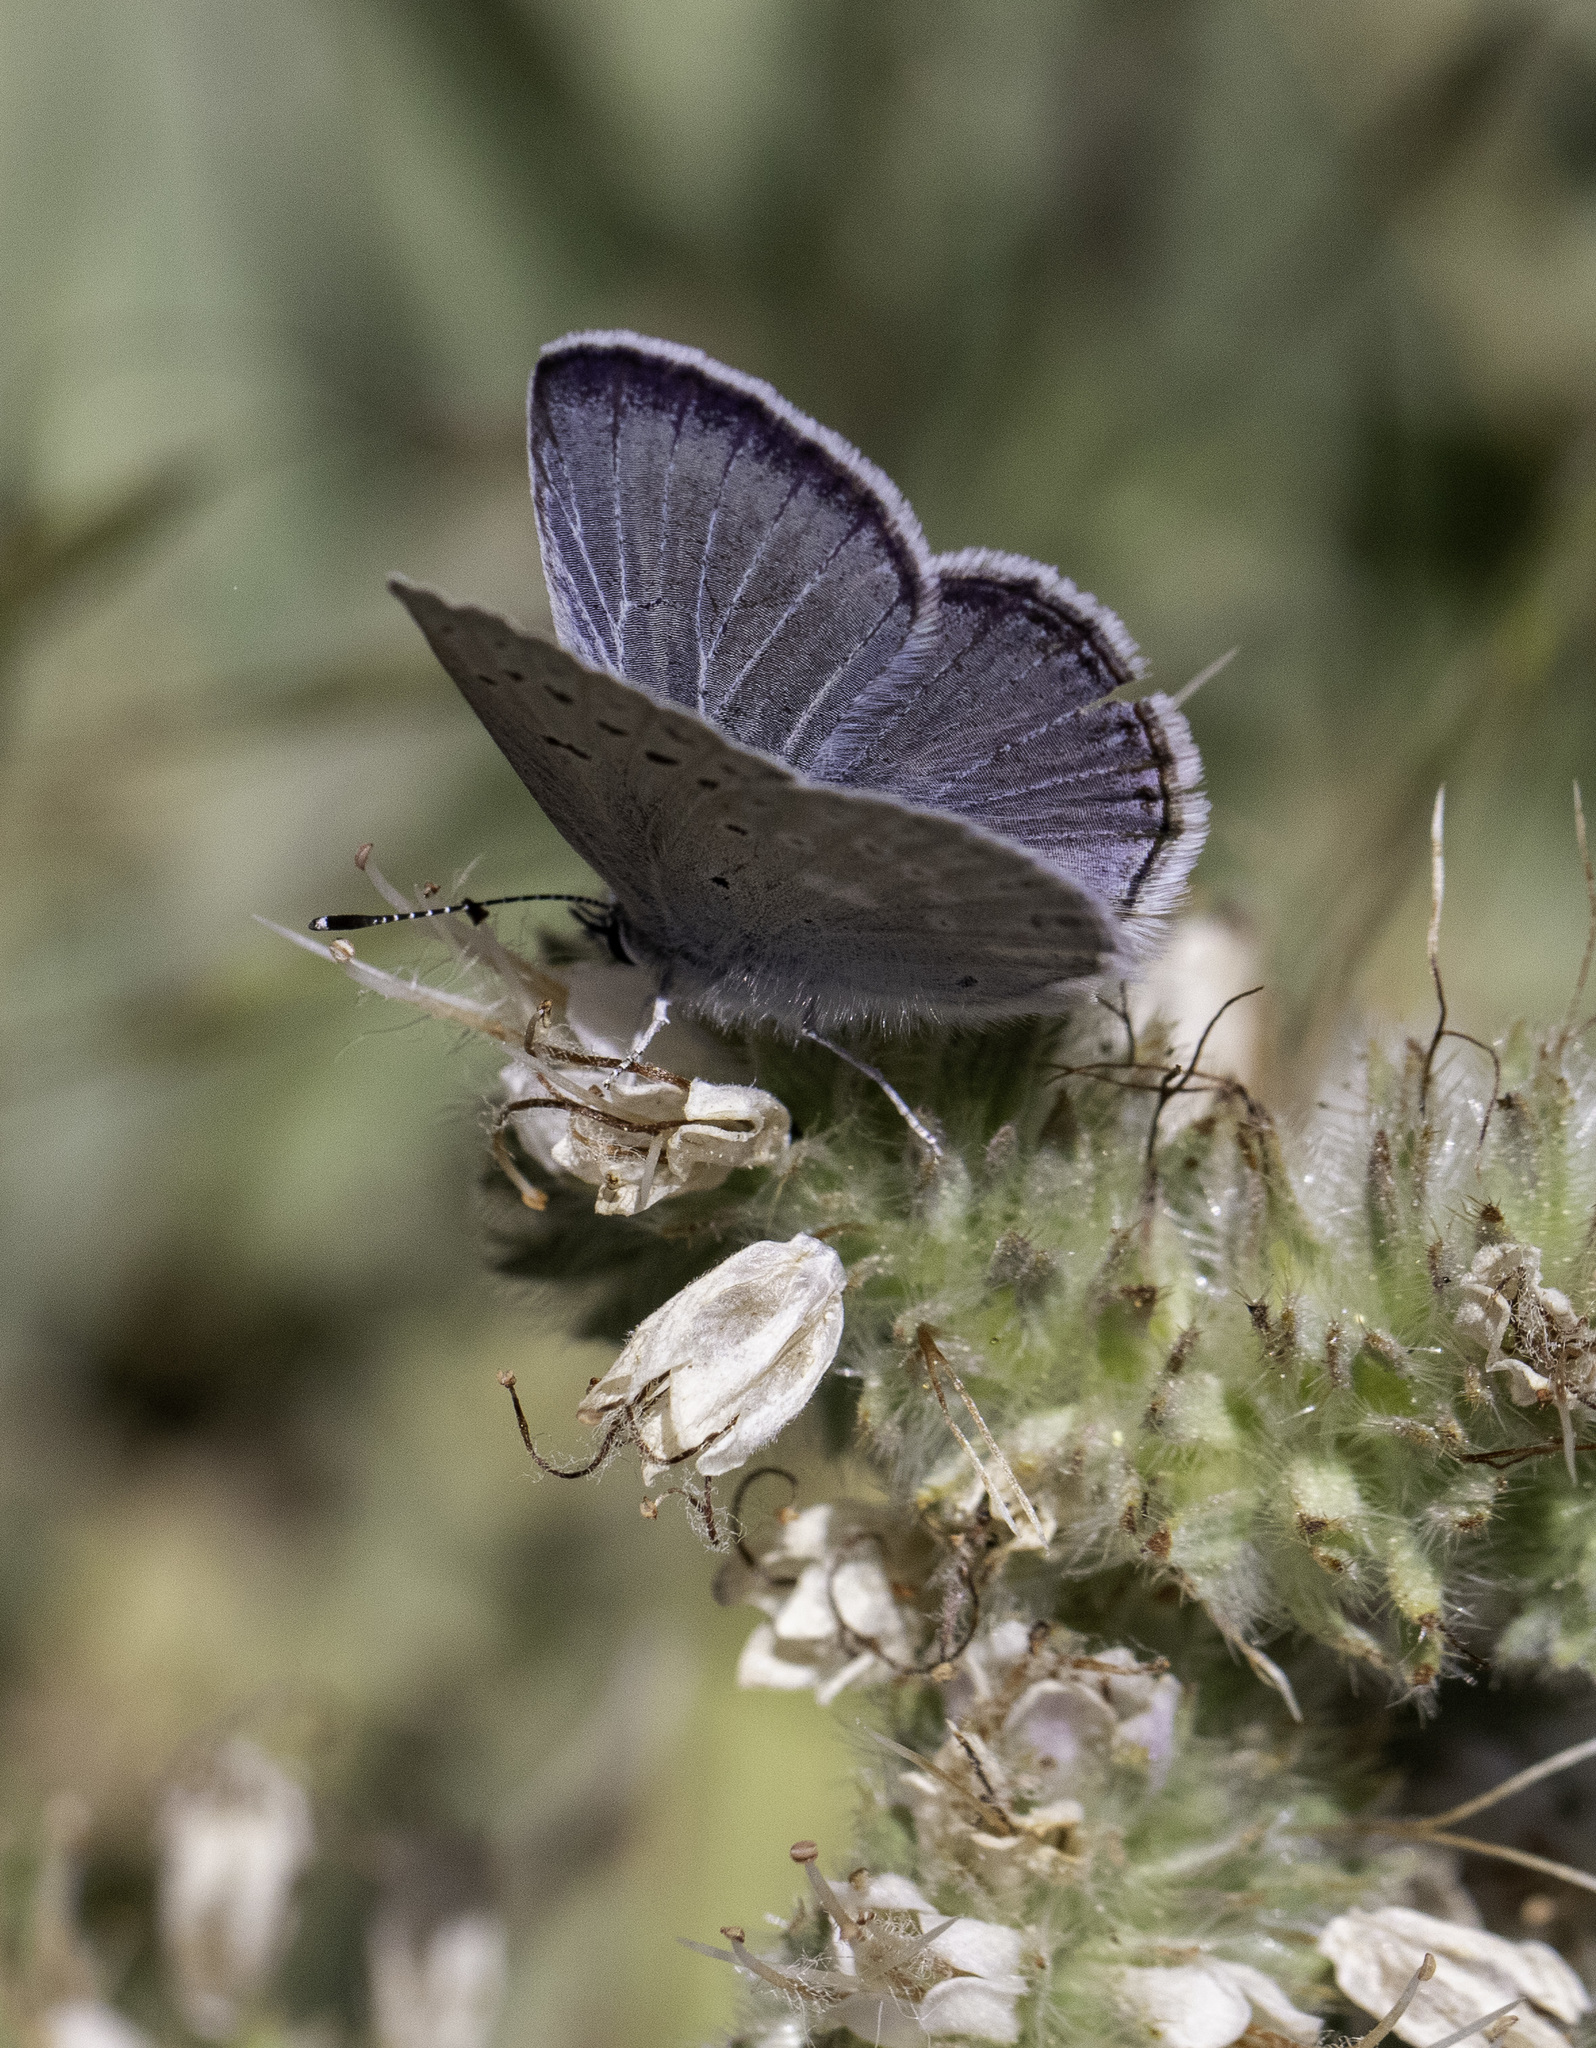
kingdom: Animalia
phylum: Arthropoda
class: Insecta
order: Lepidoptera
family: Lycaenidae
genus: Icaricia
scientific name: Icaricia icarioides
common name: Boisduval's blue
